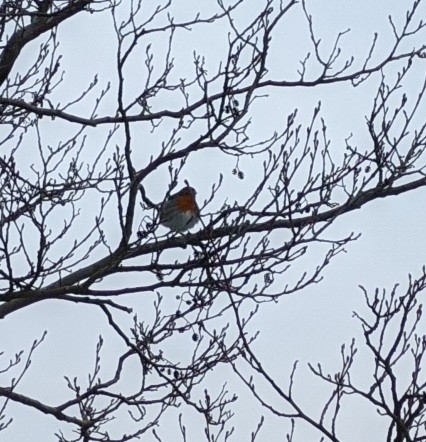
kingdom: Animalia
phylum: Chordata
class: Aves
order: Passeriformes
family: Muscicapidae
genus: Erithacus
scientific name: Erithacus rubecula
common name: European robin
